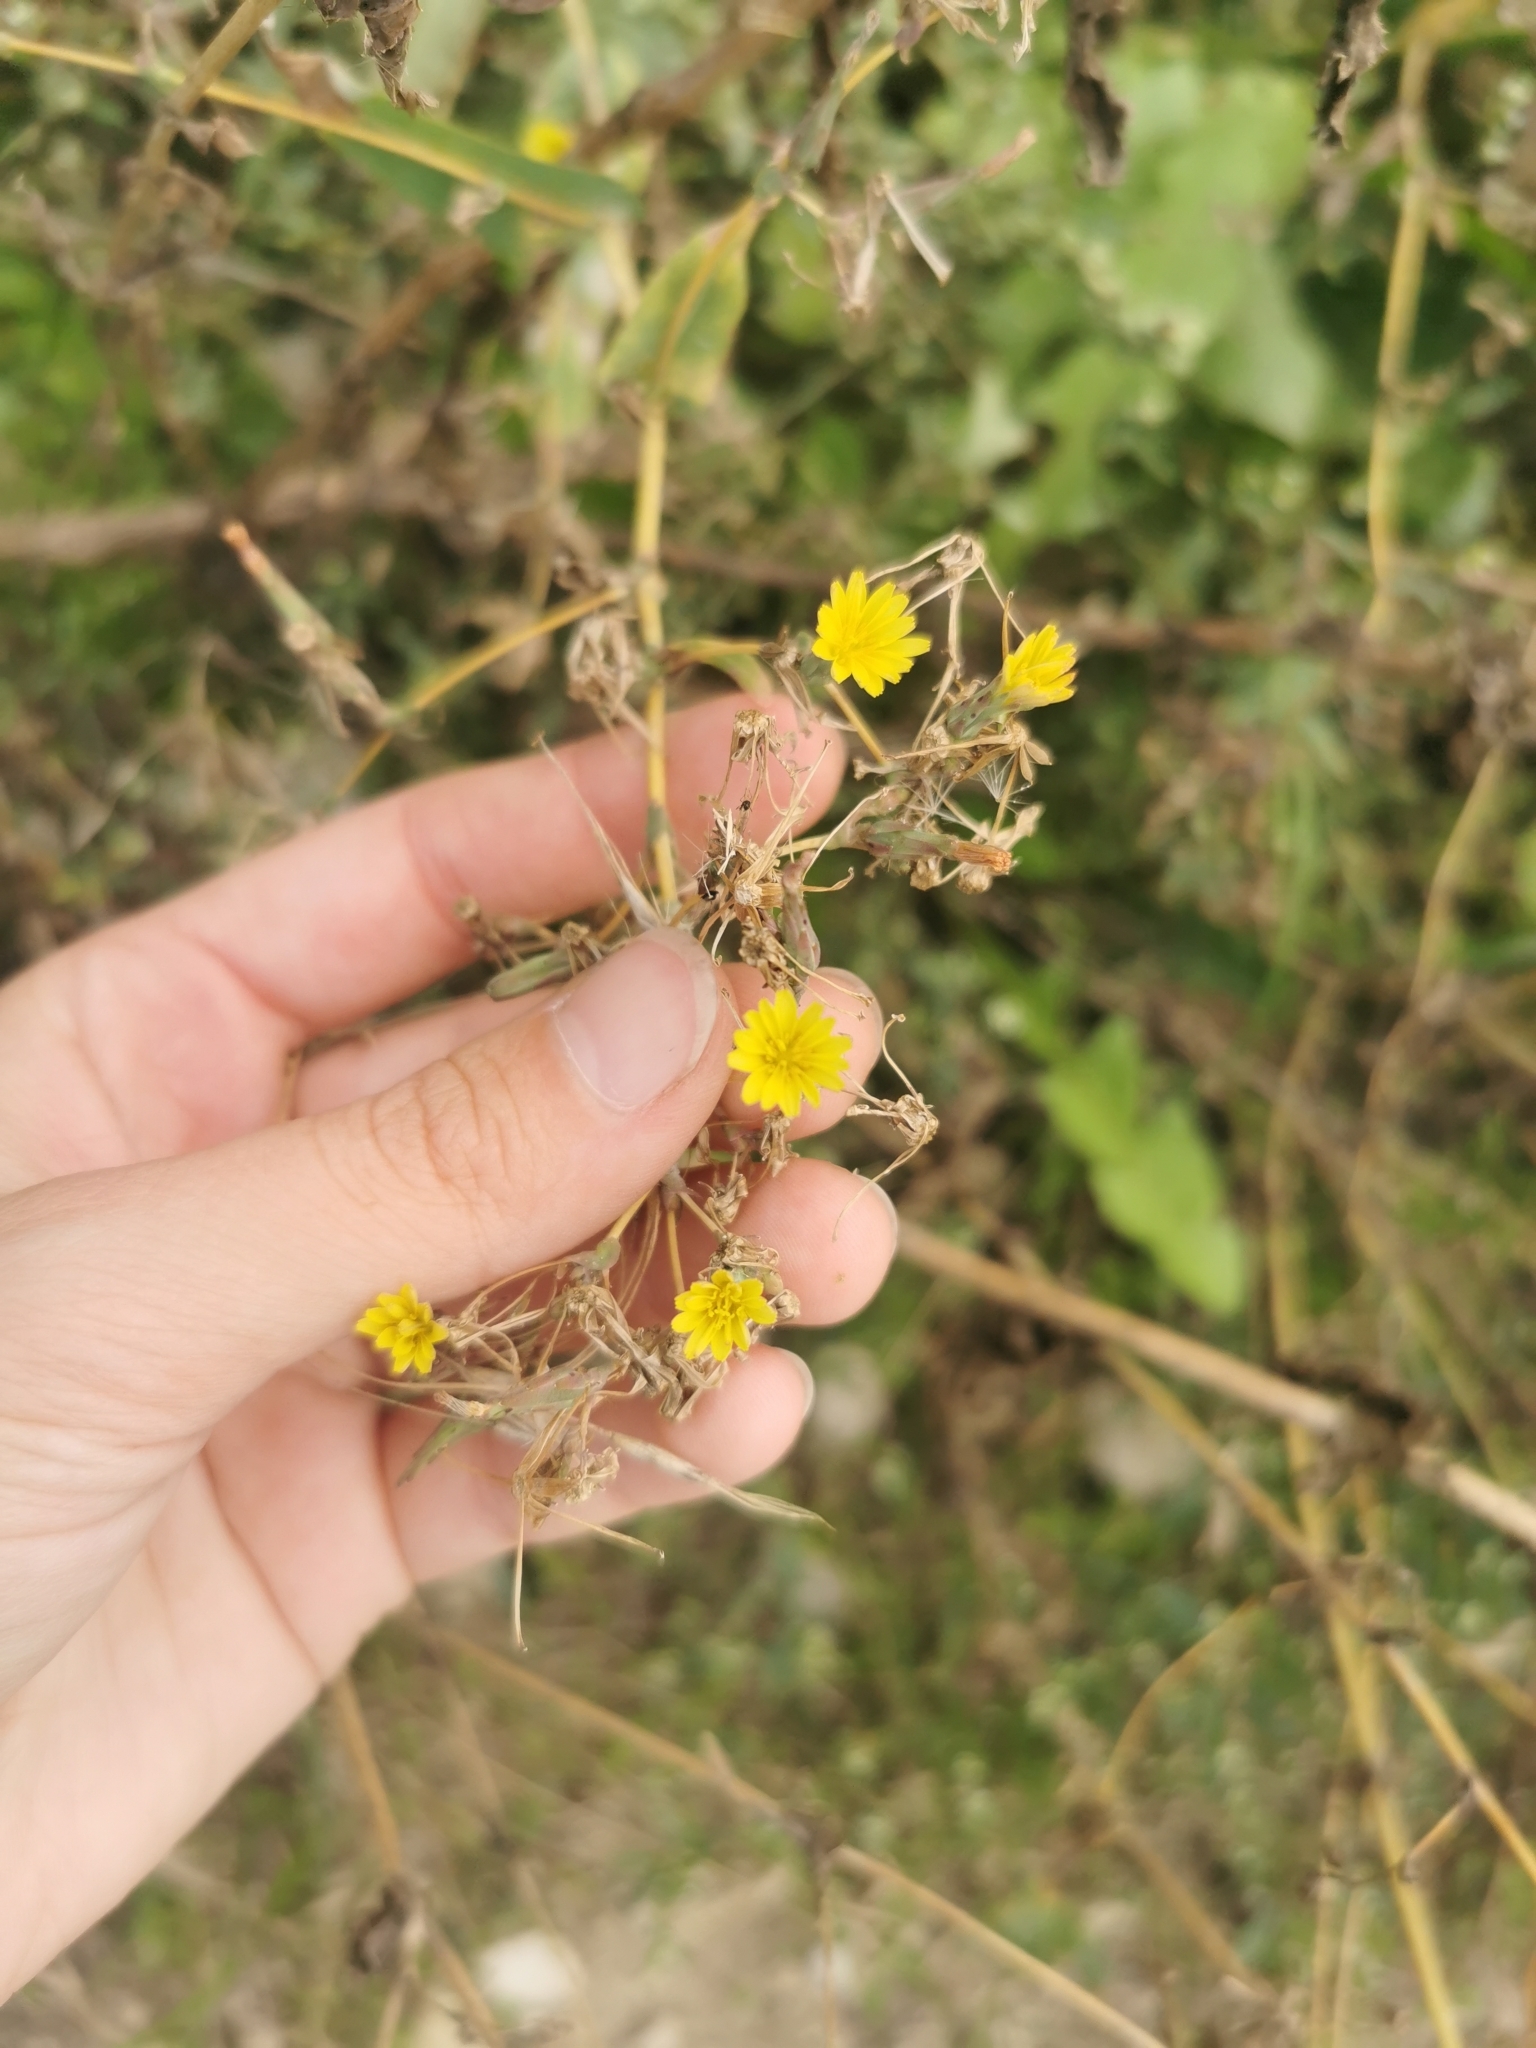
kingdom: Plantae
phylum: Tracheophyta
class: Magnoliopsida
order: Asterales
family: Asteraceae
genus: Lactuca
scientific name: Lactuca serriola
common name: Prickly lettuce
